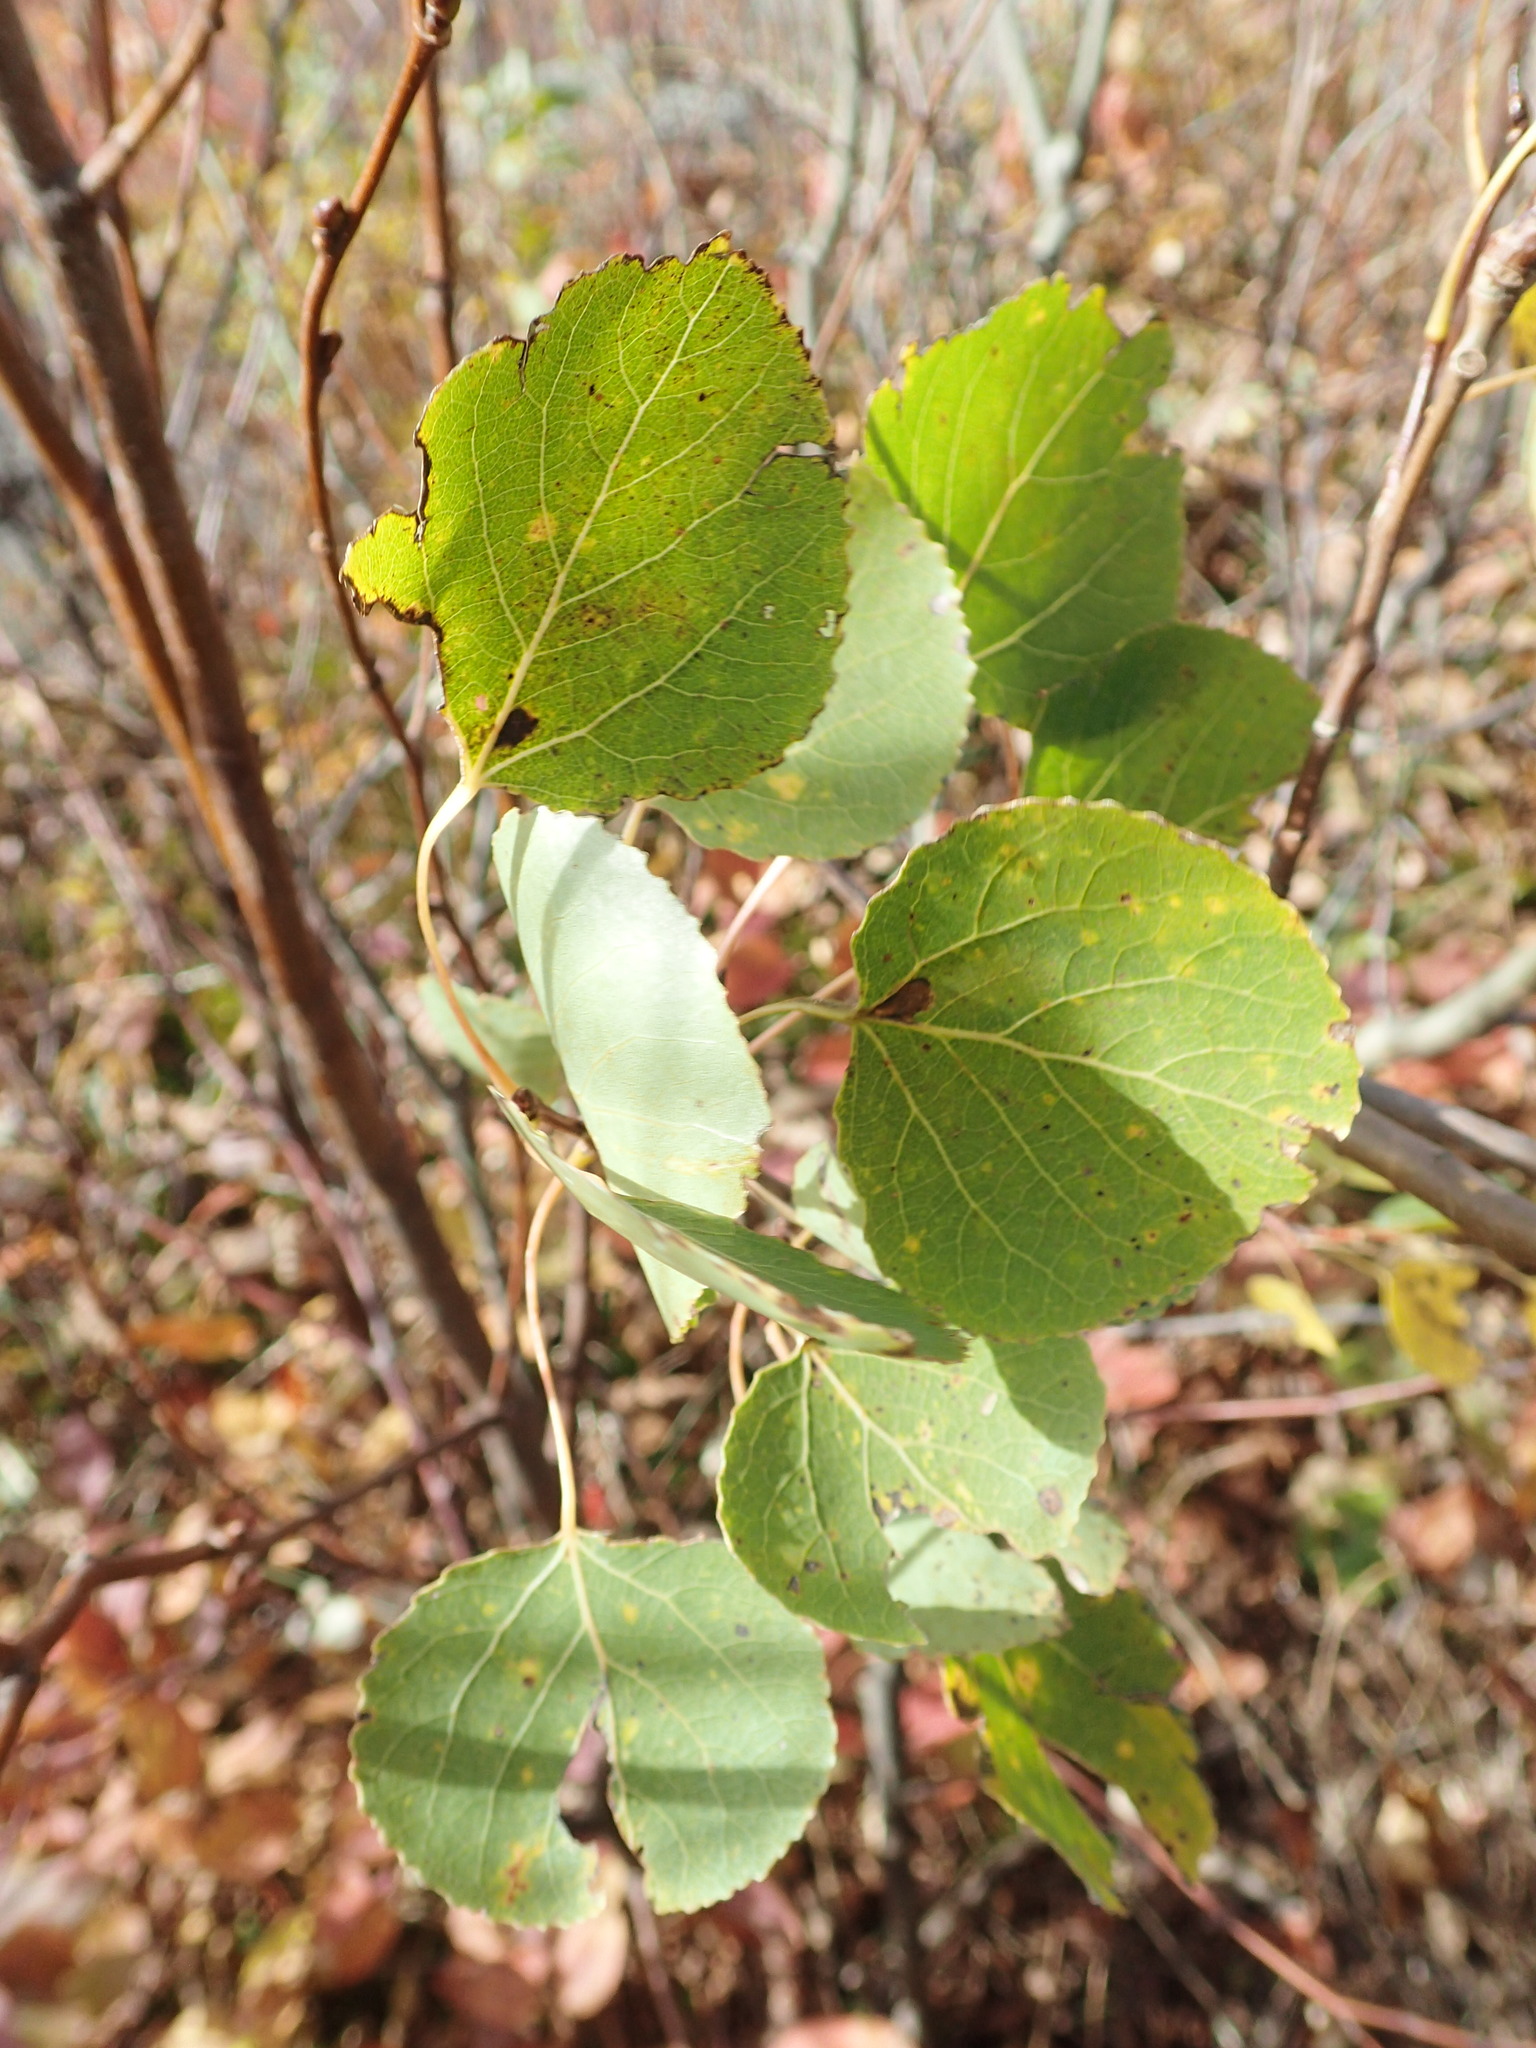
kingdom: Plantae
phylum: Tracheophyta
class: Magnoliopsida
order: Malpighiales
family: Salicaceae
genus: Populus
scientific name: Populus tremuloides
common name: Quaking aspen
